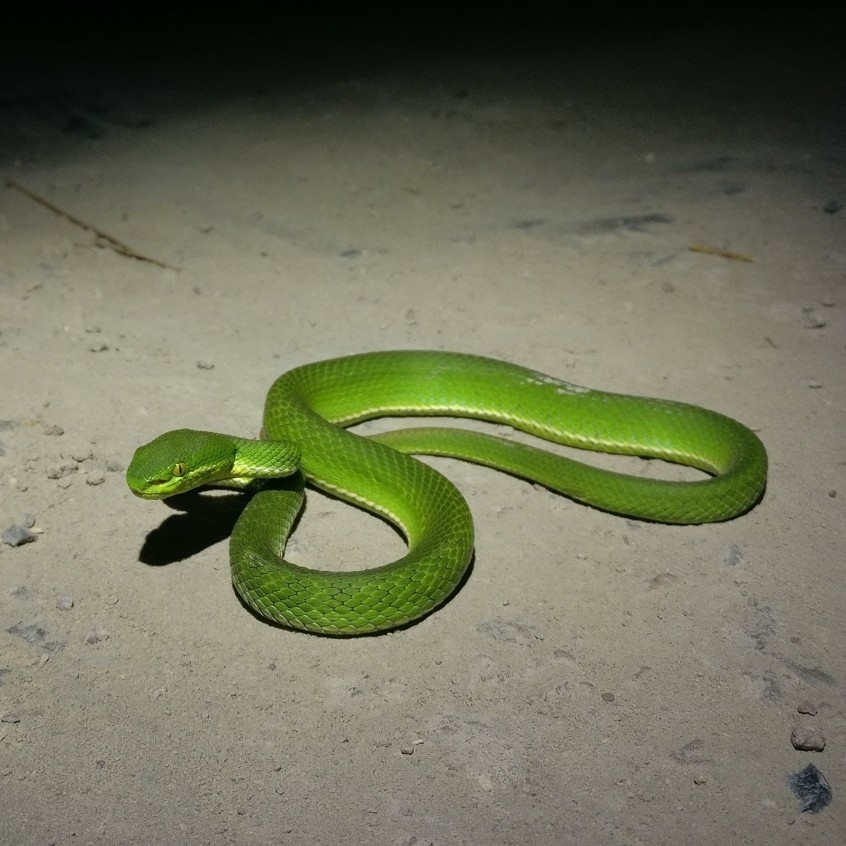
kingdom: Animalia
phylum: Chordata
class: Squamata
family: Viperidae
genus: Trimeresurus
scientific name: Trimeresurus septentrionalis
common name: Himalayan white-lipped pitviper
